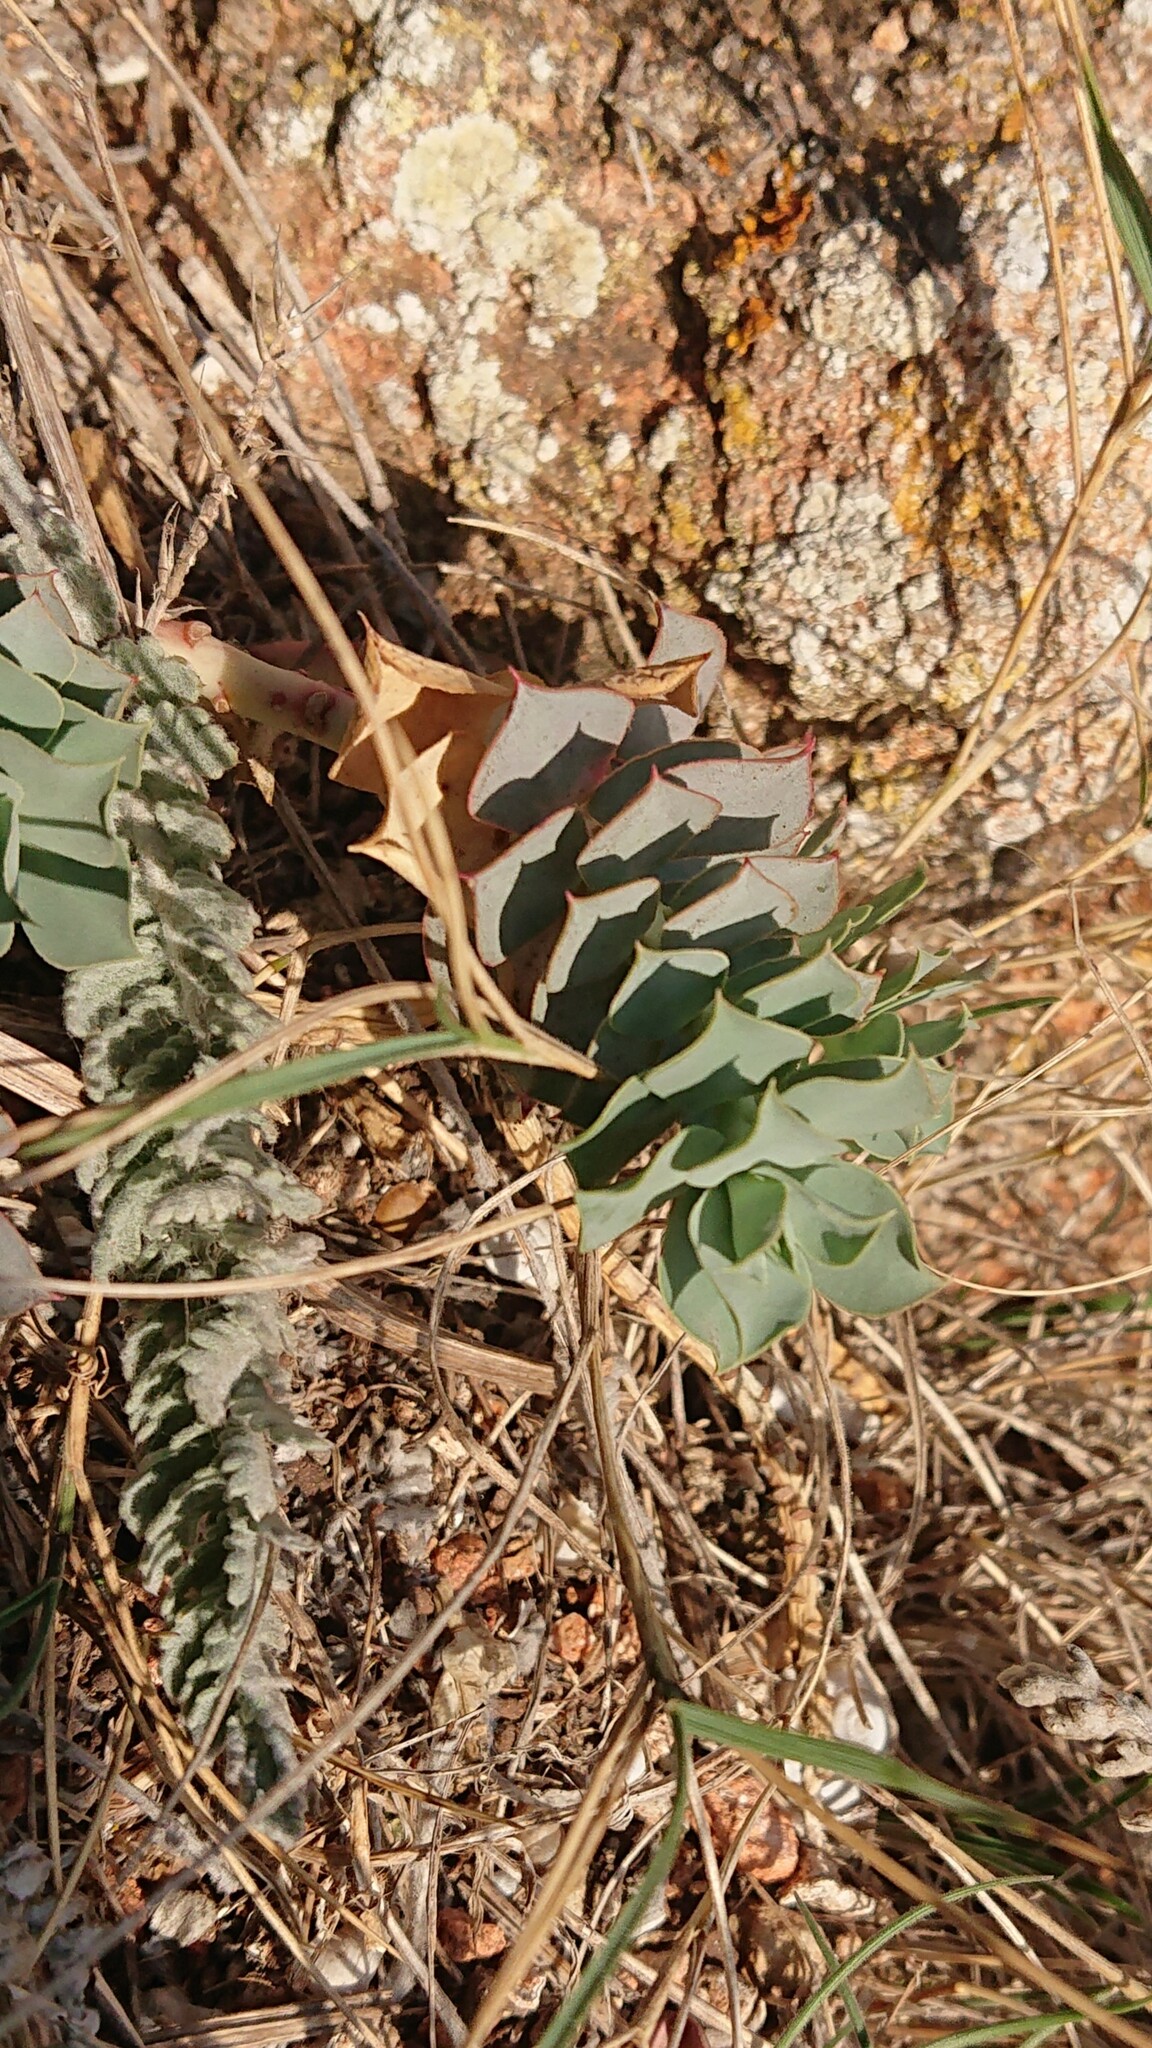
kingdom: Plantae
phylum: Tracheophyta
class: Magnoliopsida
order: Malpighiales
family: Euphorbiaceae
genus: Euphorbia
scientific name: Euphorbia myrsinites
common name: Myrtle spurge
